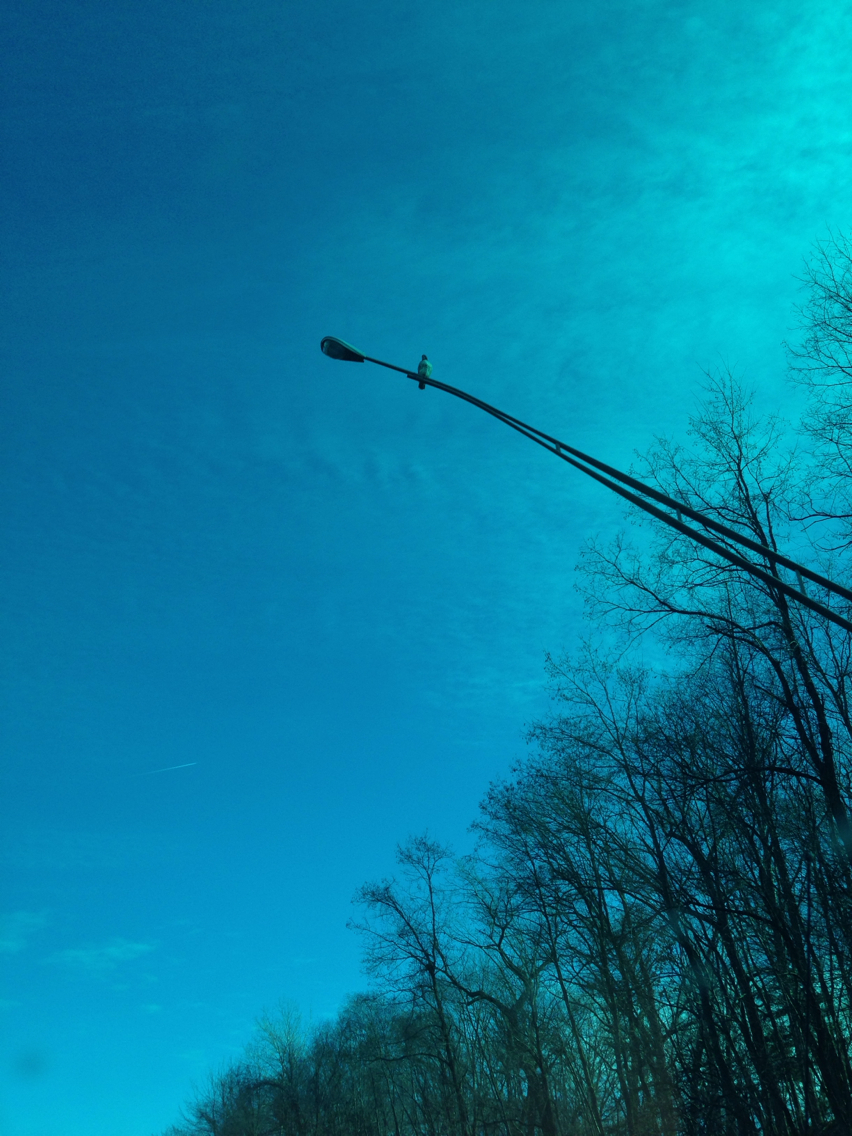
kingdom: Animalia
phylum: Chordata
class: Aves
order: Accipitriformes
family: Accipitridae
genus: Buteo
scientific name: Buteo jamaicensis
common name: Red-tailed hawk
